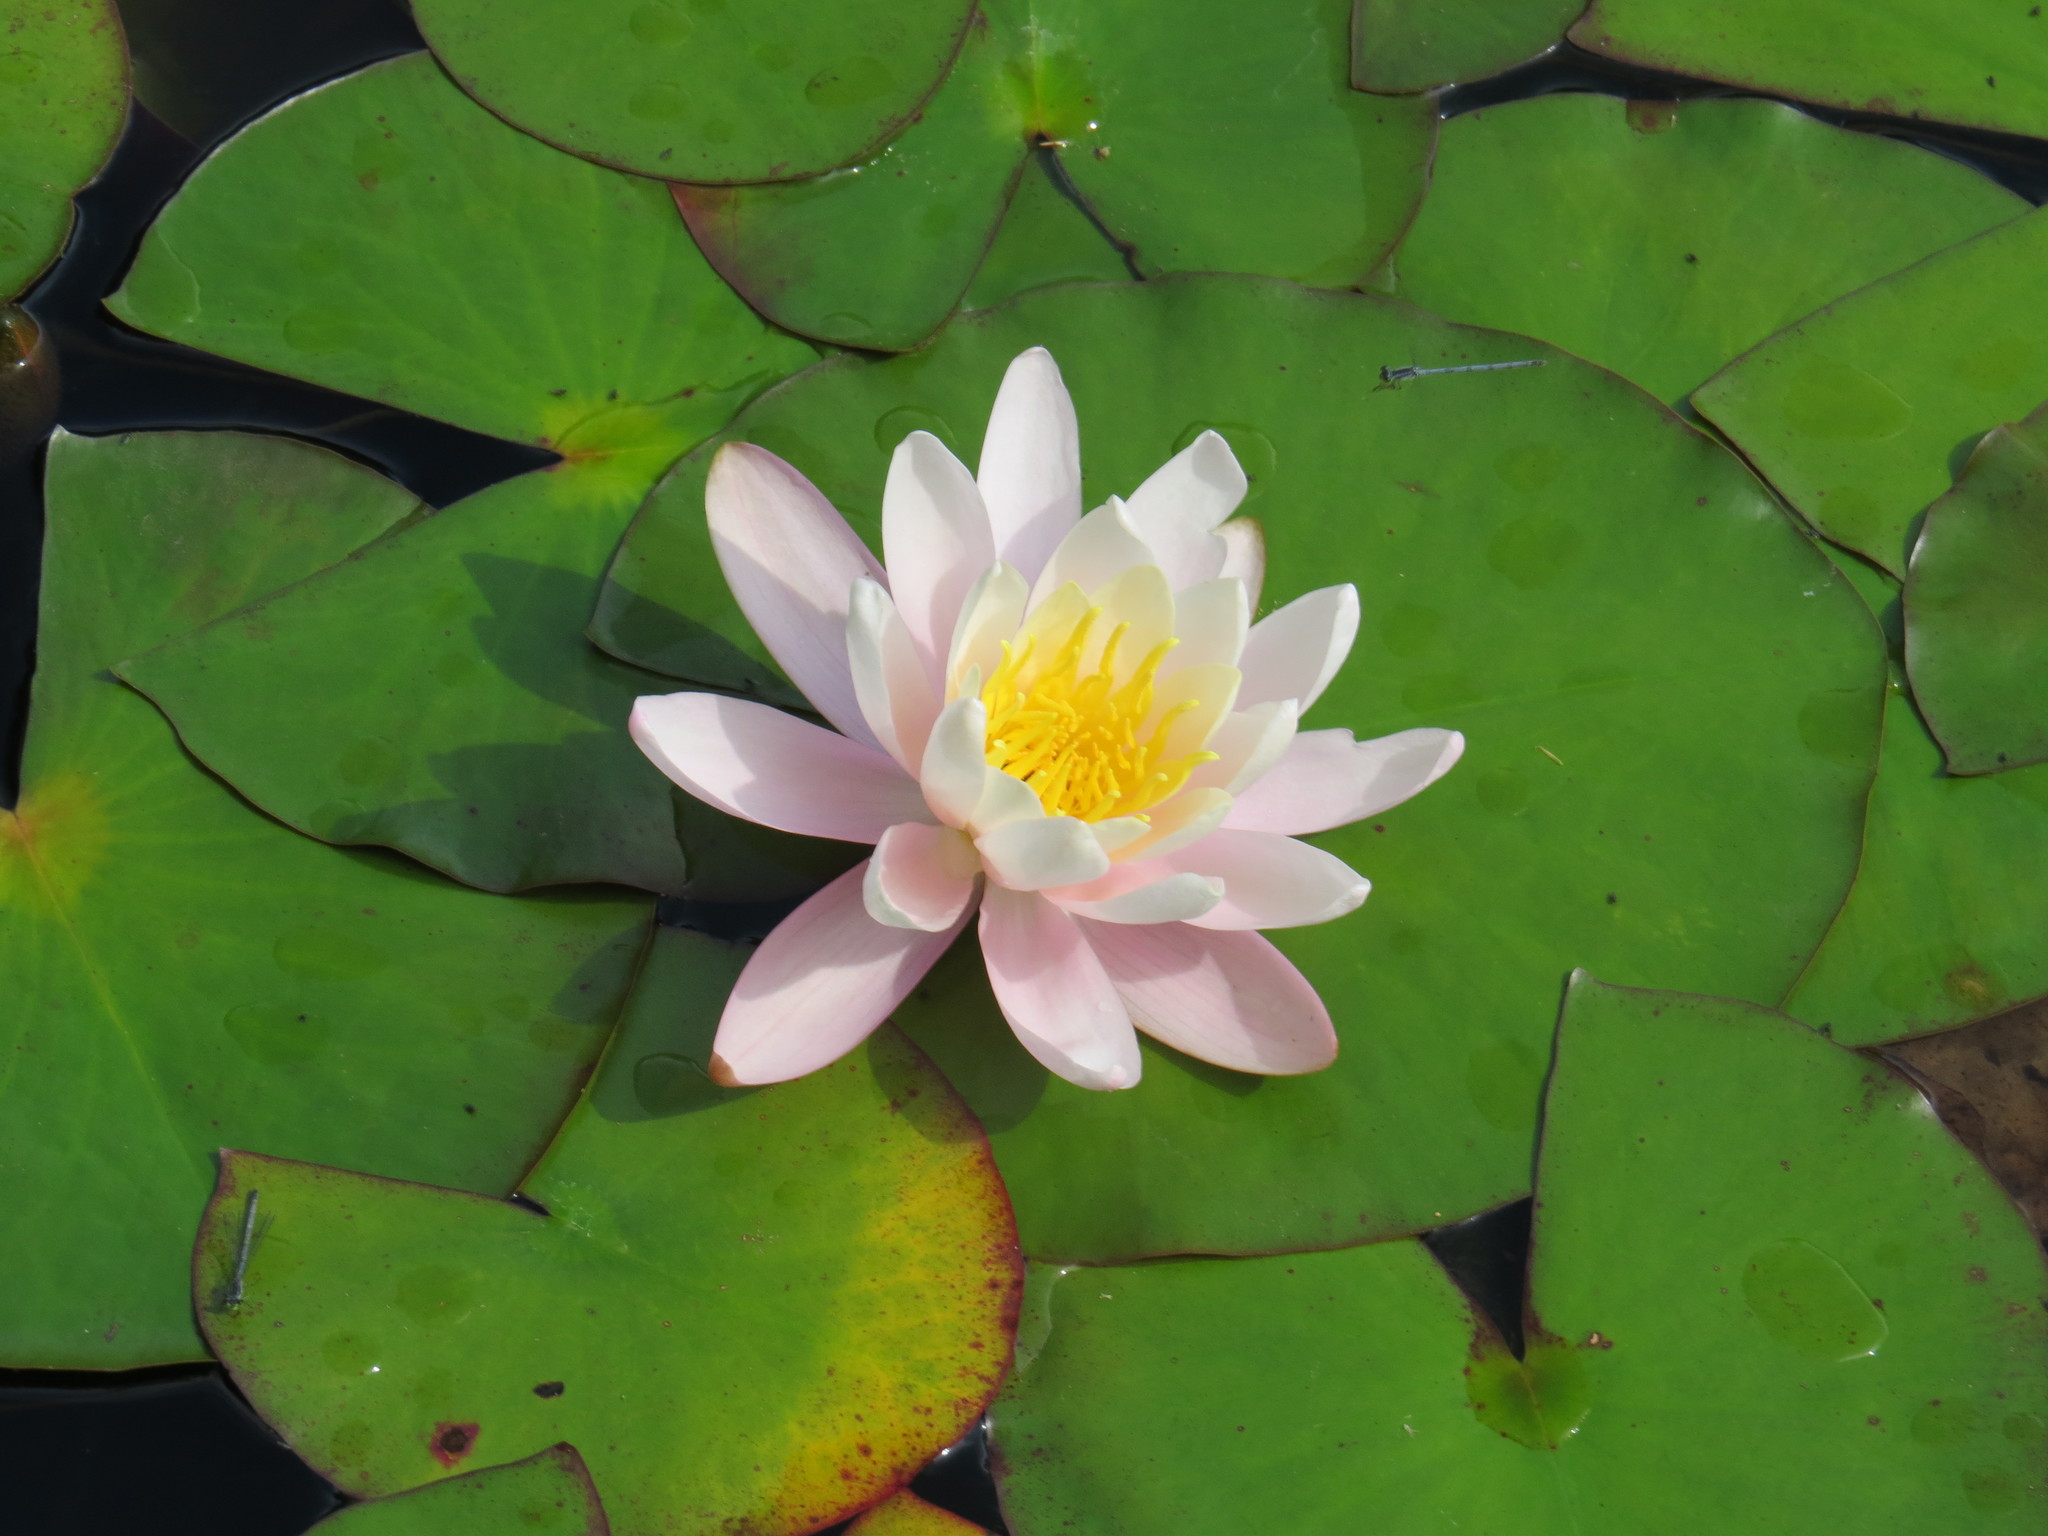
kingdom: Plantae
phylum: Tracheophyta
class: Magnoliopsida
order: Nymphaeales
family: Nymphaeaceae
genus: Nymphaea
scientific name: Nymphaea odorata
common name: Fragrant water-lily
